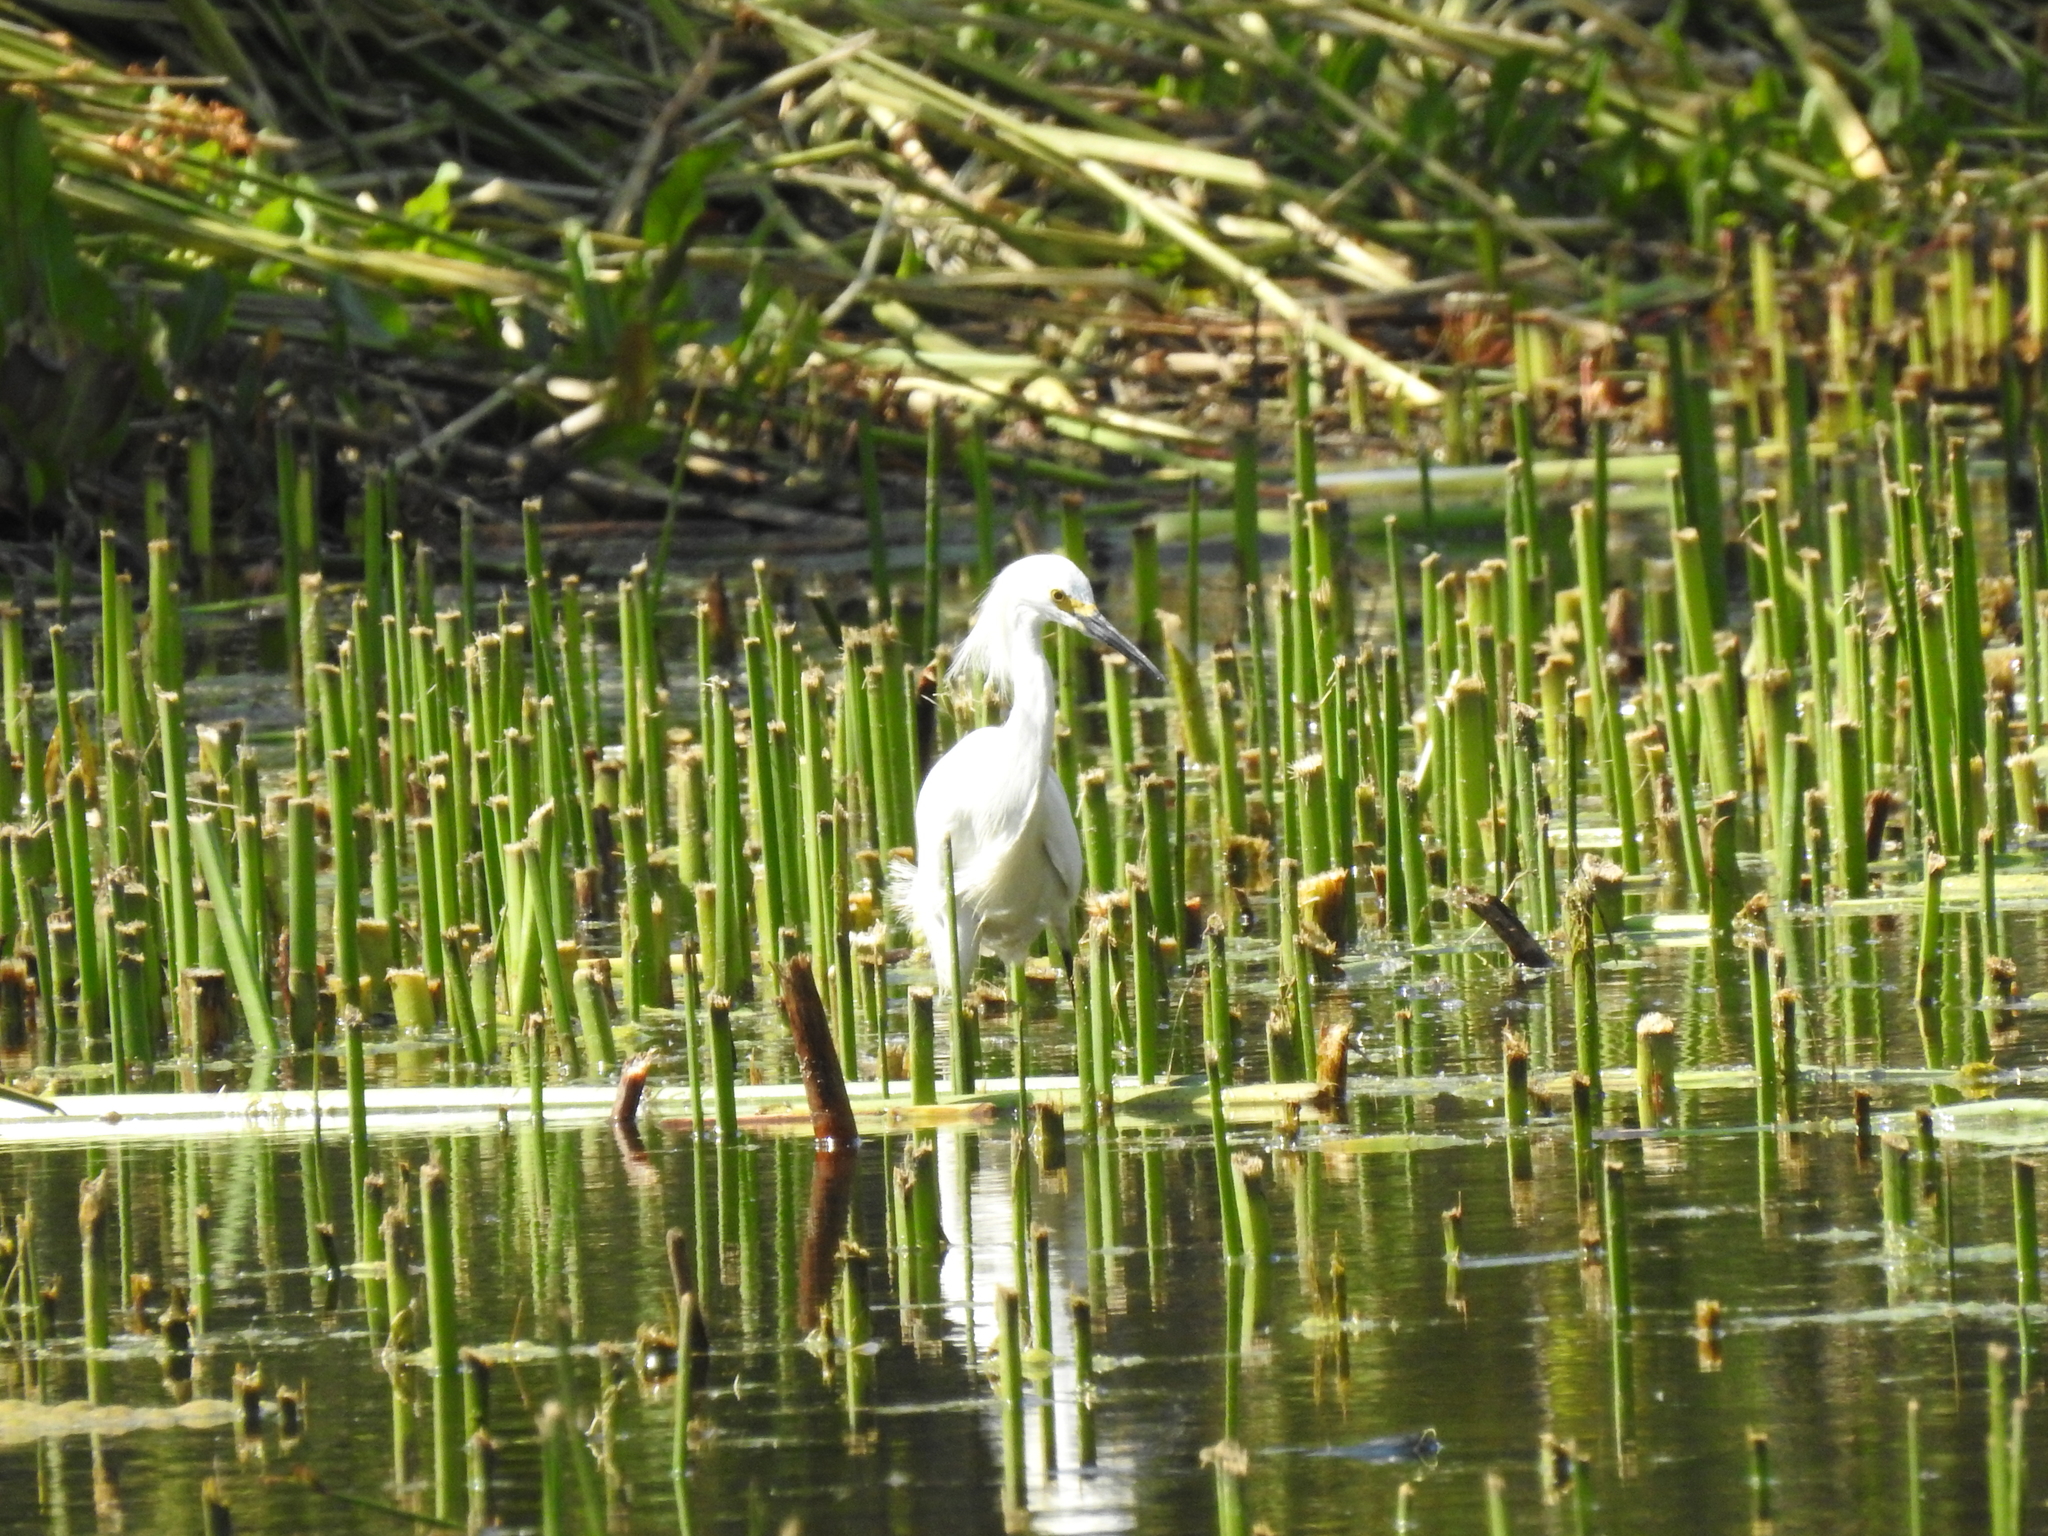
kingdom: Animalia
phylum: Chordata
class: Aves
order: Pelecaniformes
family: Ardeidae
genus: Egretta
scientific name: Egretta thula
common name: Snowy egret
